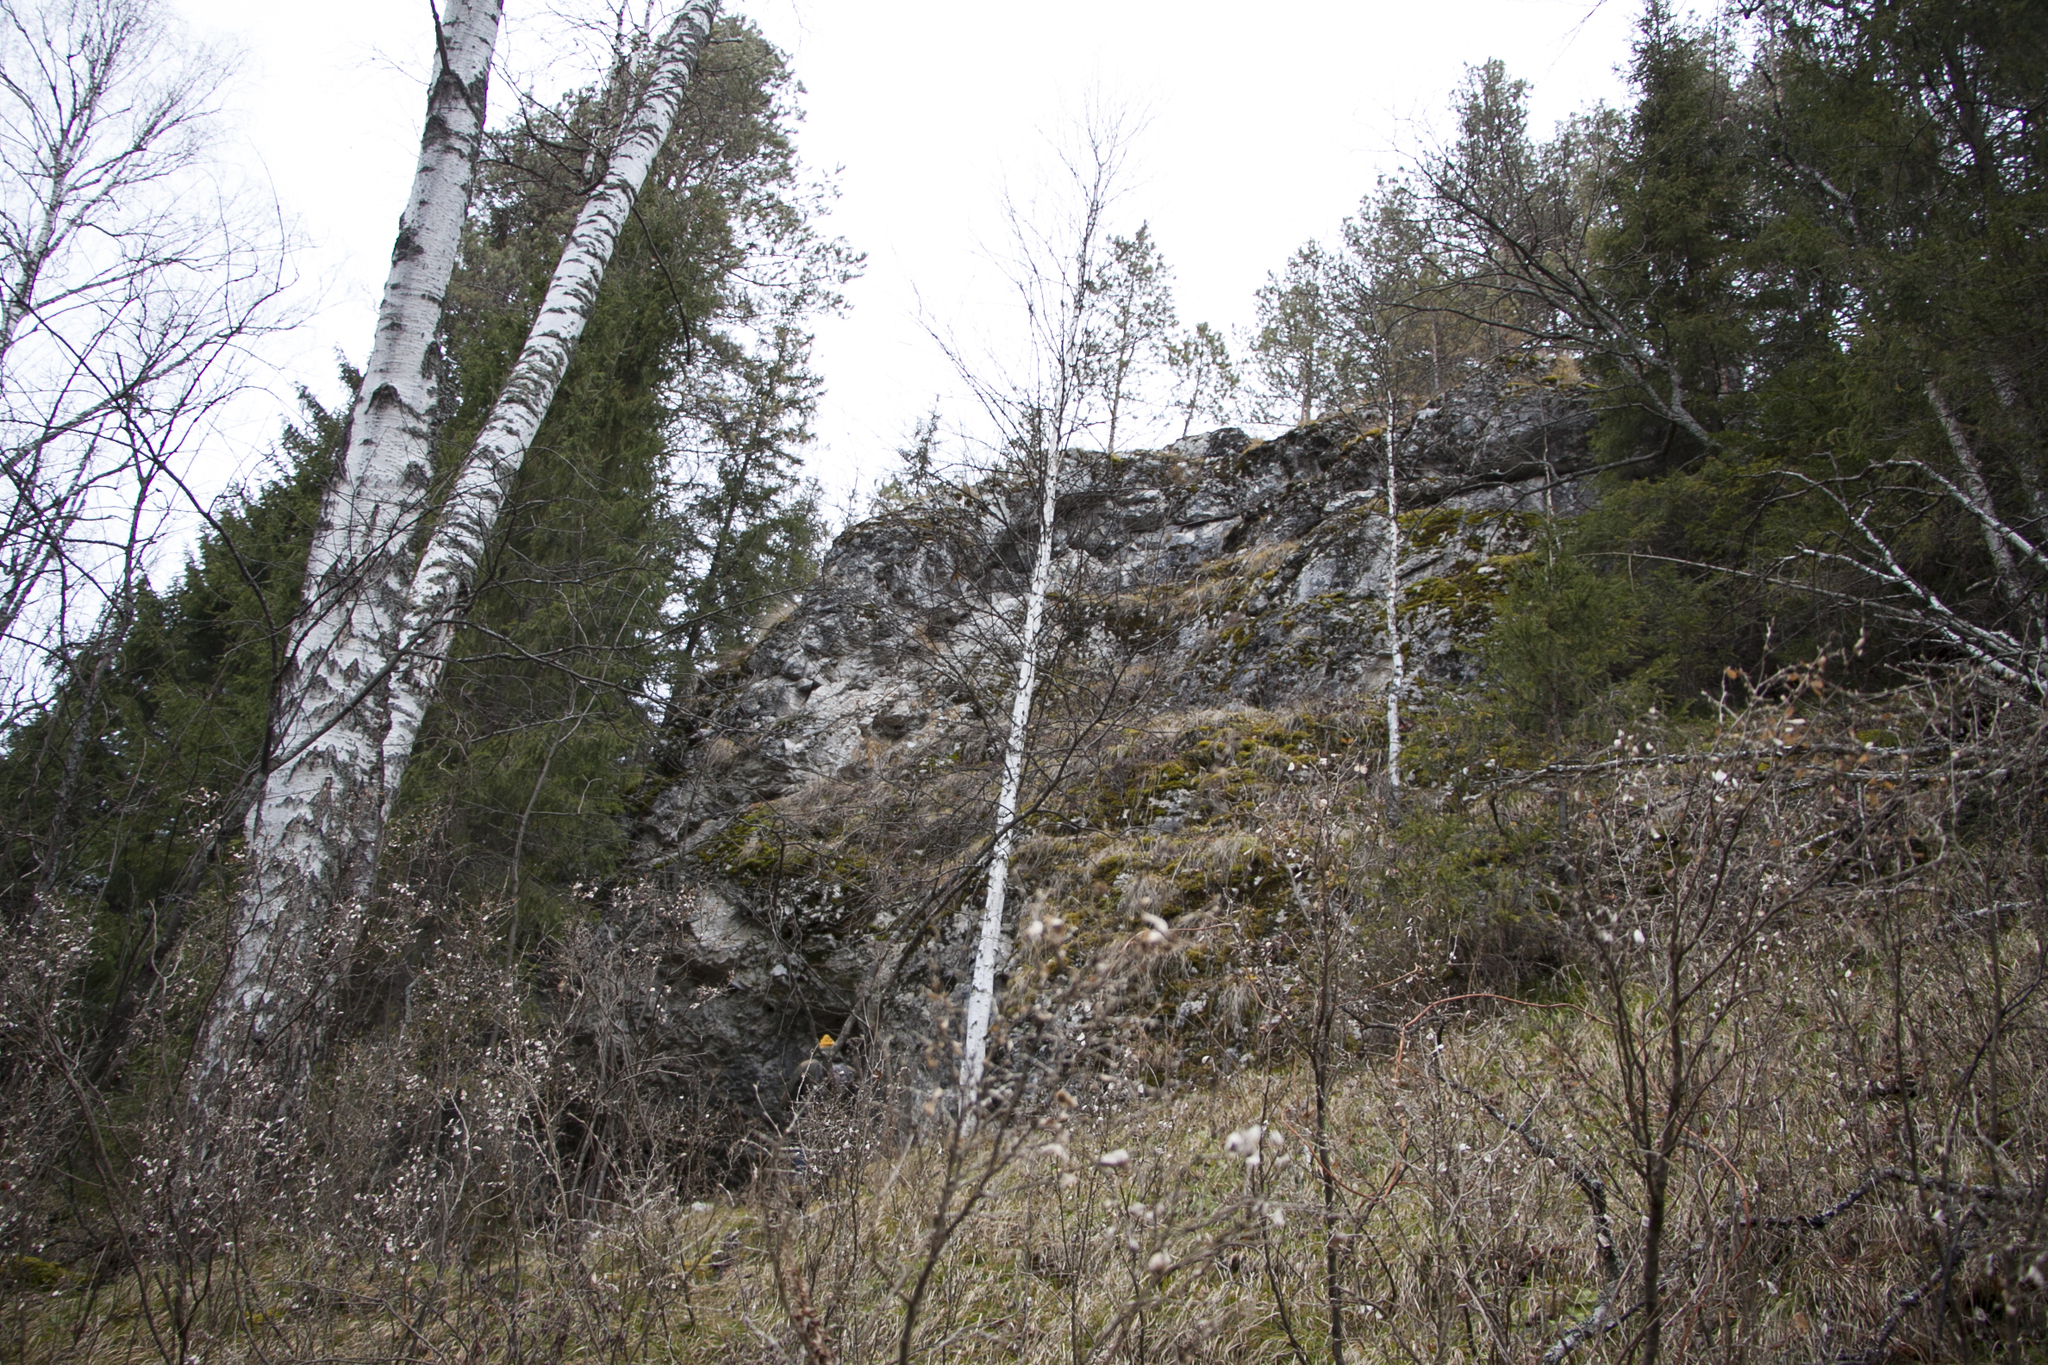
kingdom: Plantae
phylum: Tracheophyta
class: Pinopsida
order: Pinales
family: Pinaceae
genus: Picea
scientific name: Picea obovata
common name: Siberian spruce
